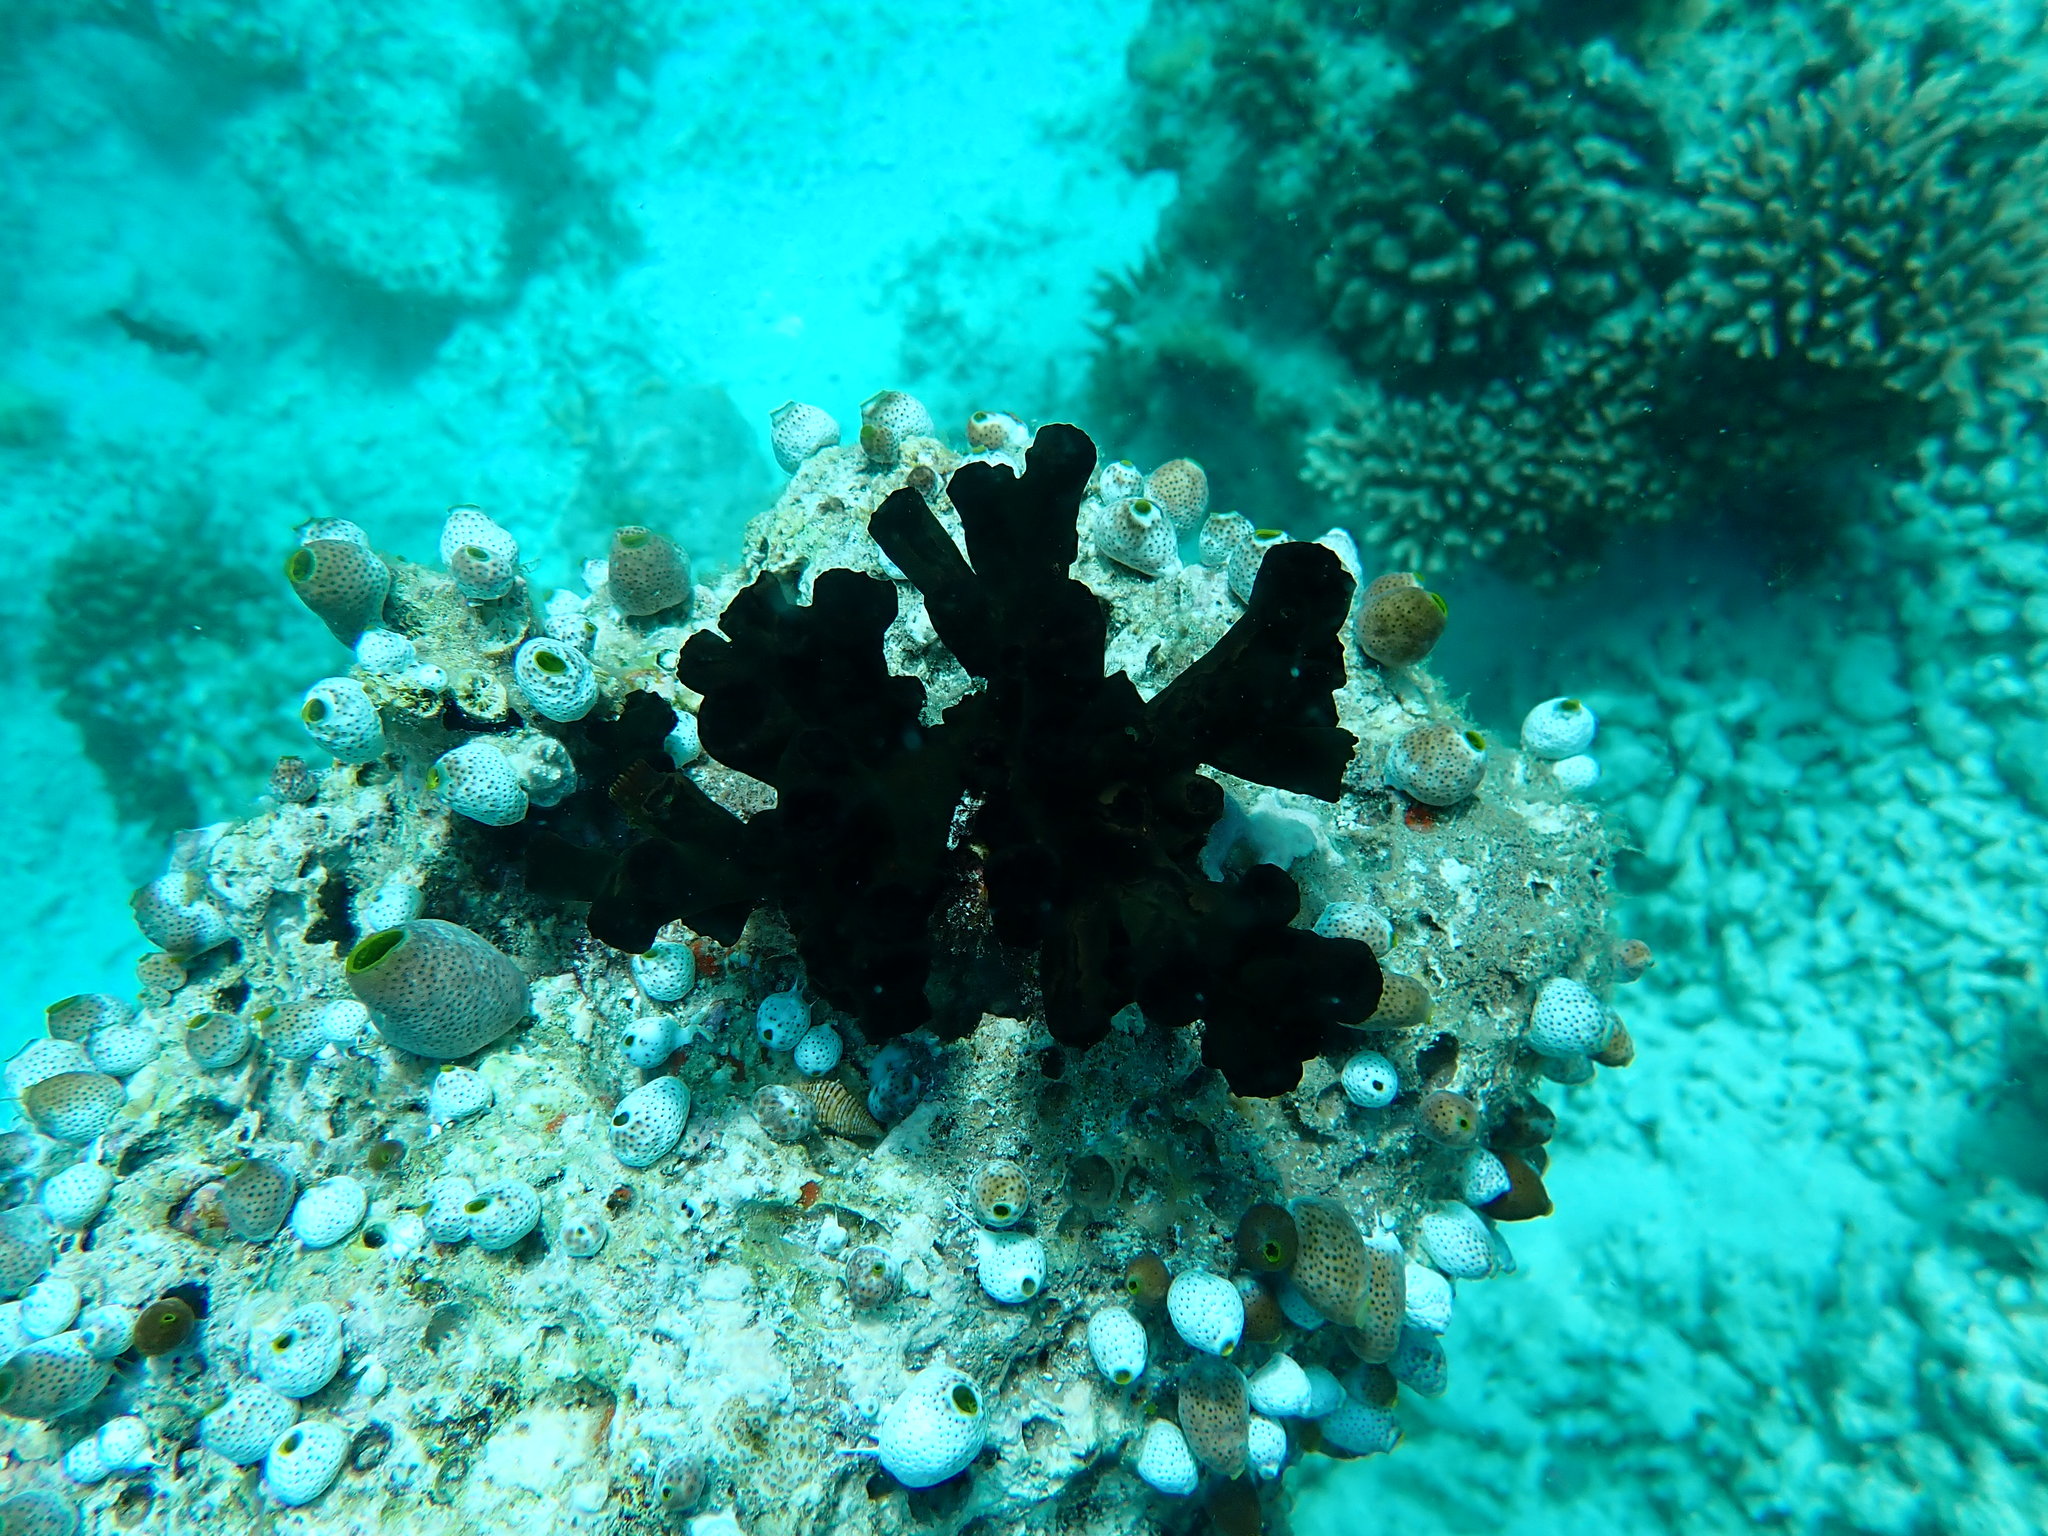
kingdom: Animalia
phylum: Chordata
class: Ascidiacea
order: Aplousobranchia
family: Didemnidae
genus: Didemnum
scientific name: Didemnum molle
